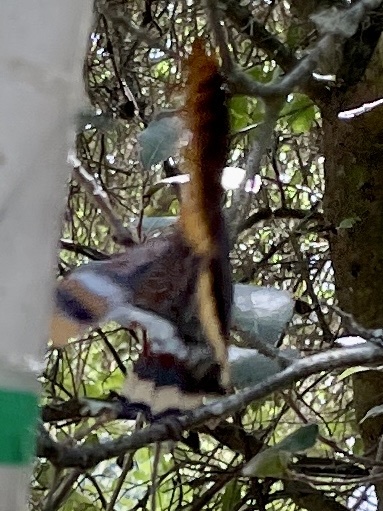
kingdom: Animalia
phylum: Arthropoda
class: Insecta
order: Lepidoptera
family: Nymphalidae
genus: Charaxes
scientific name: Charaxes jasius
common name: Two tailed pasha
